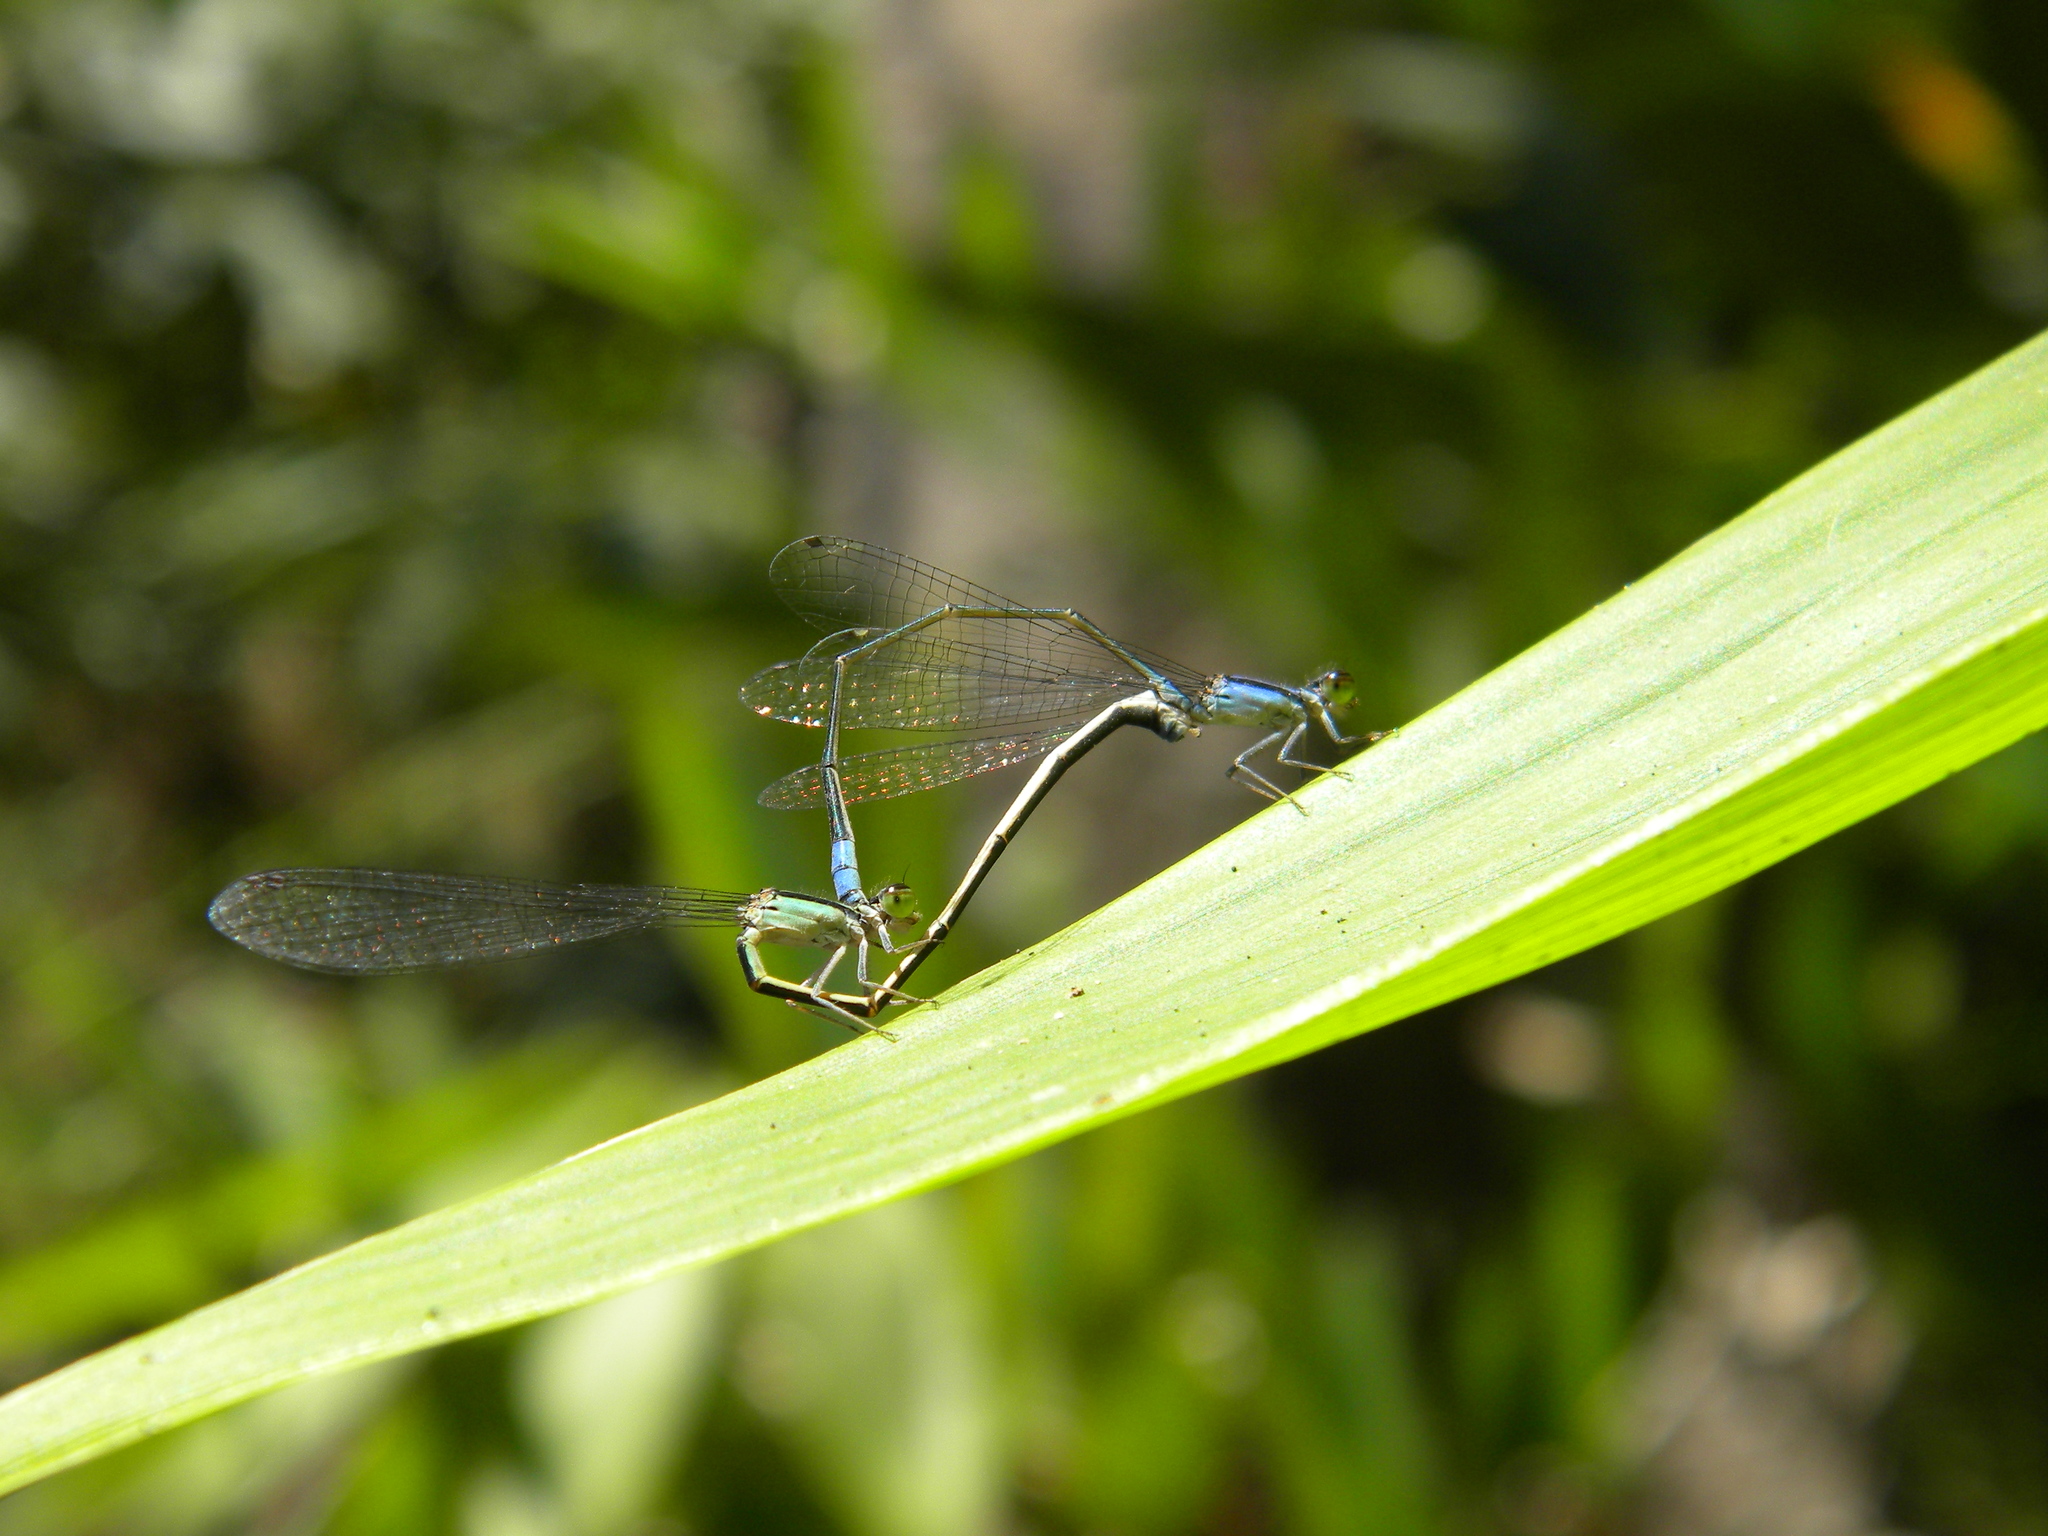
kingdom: Animalia
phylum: Arthropoda
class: Insecta
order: Odonata
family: Coenagrionidae
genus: Aciagrion
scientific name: Aciagrion approximans
